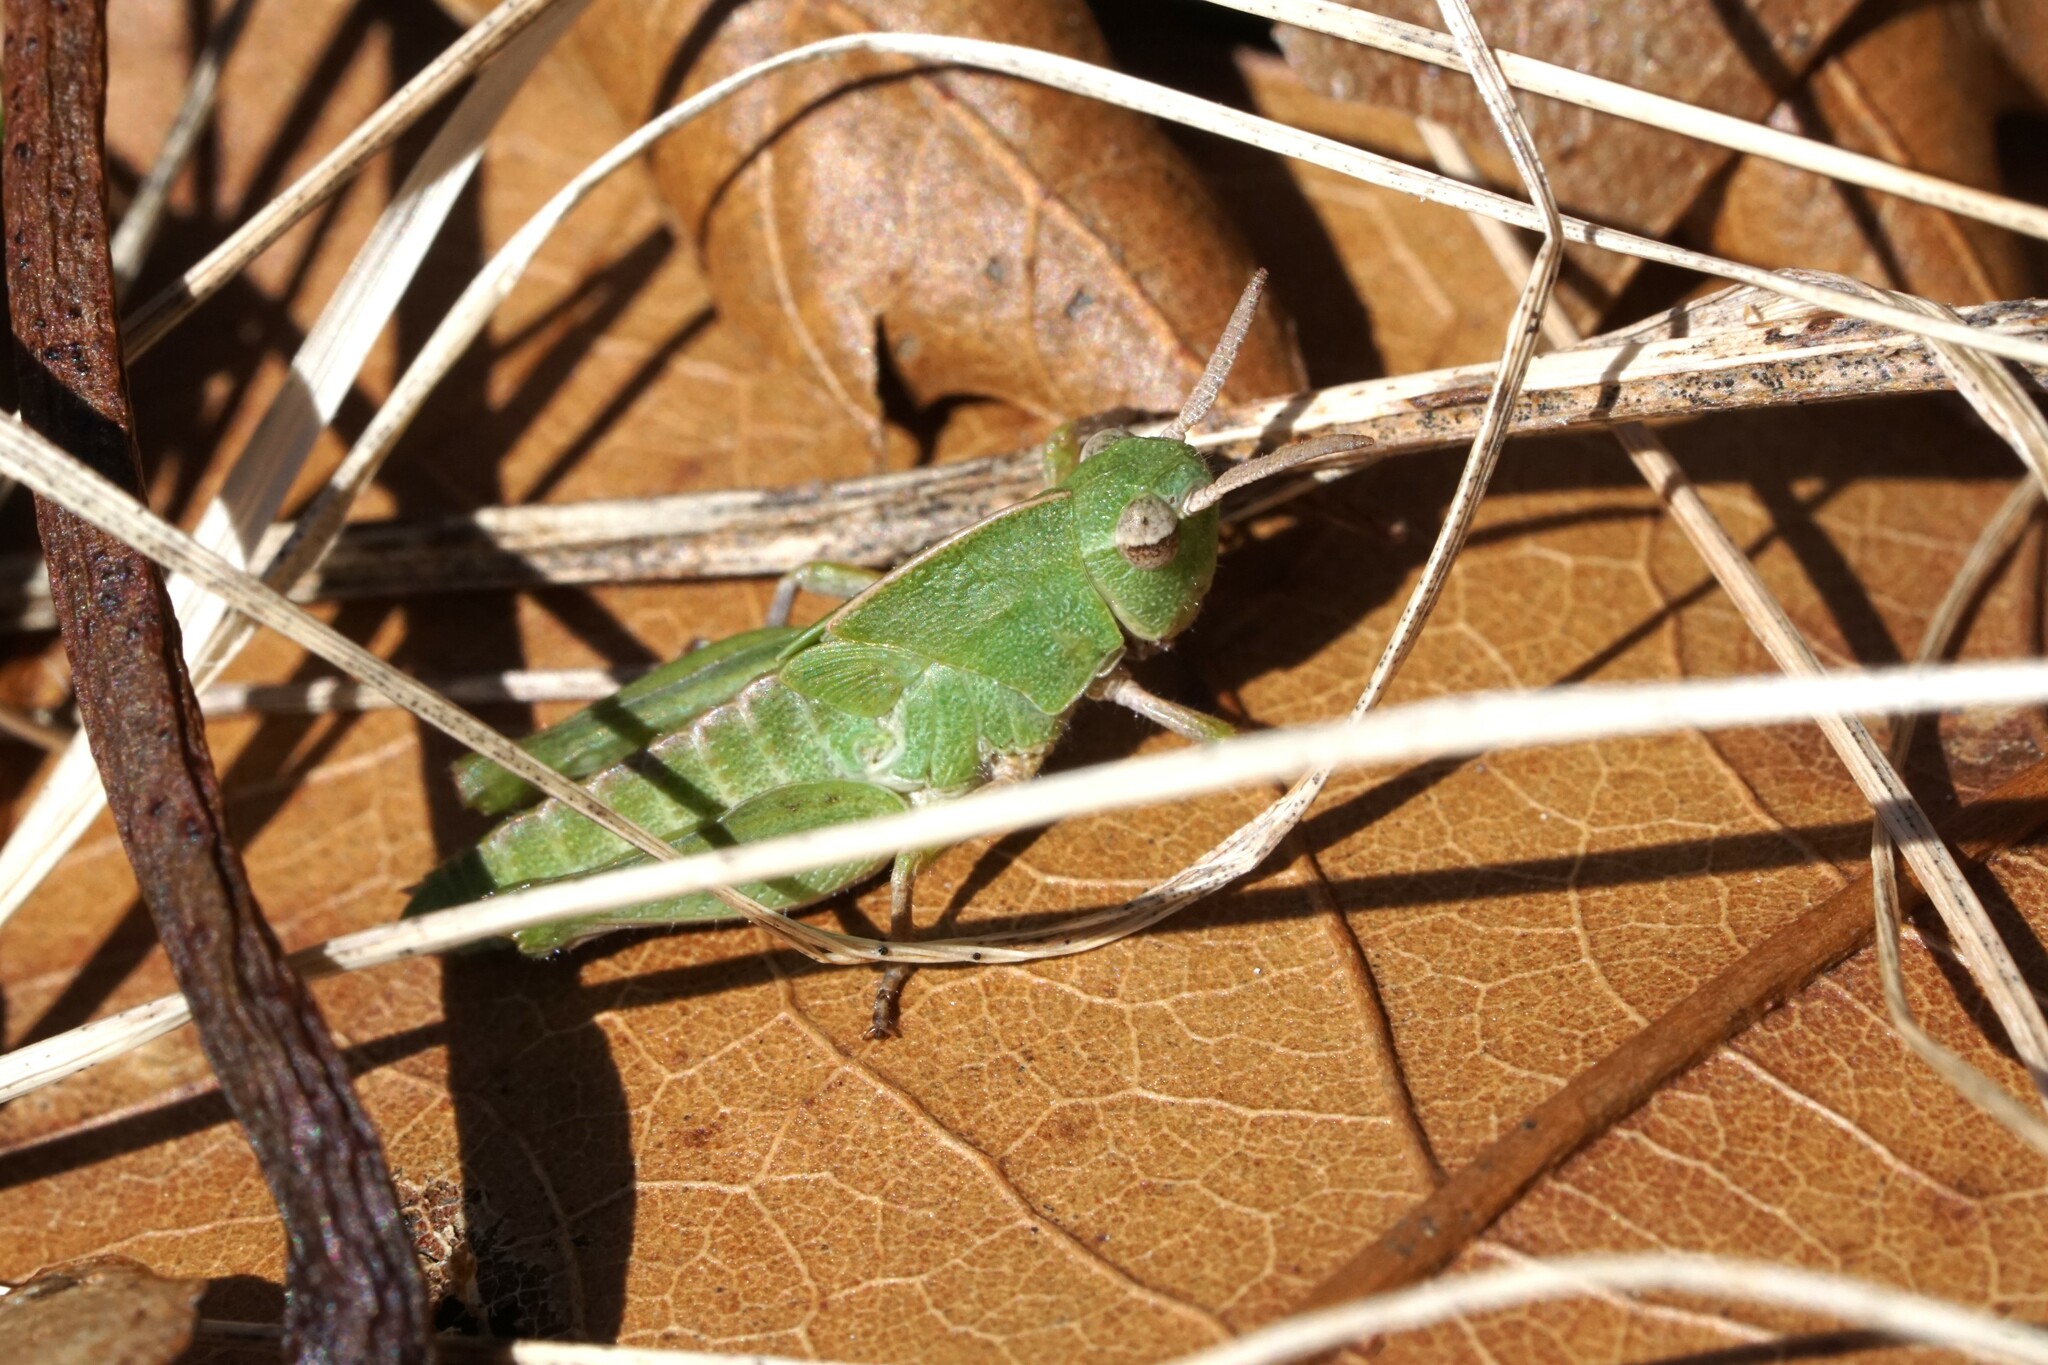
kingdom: Animalia
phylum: Arthropoda
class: Insecta
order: Orthoptera
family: Acrididae
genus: Chortophaga
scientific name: Chortophaga viridifasciata
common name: Green-striped grasshopper
